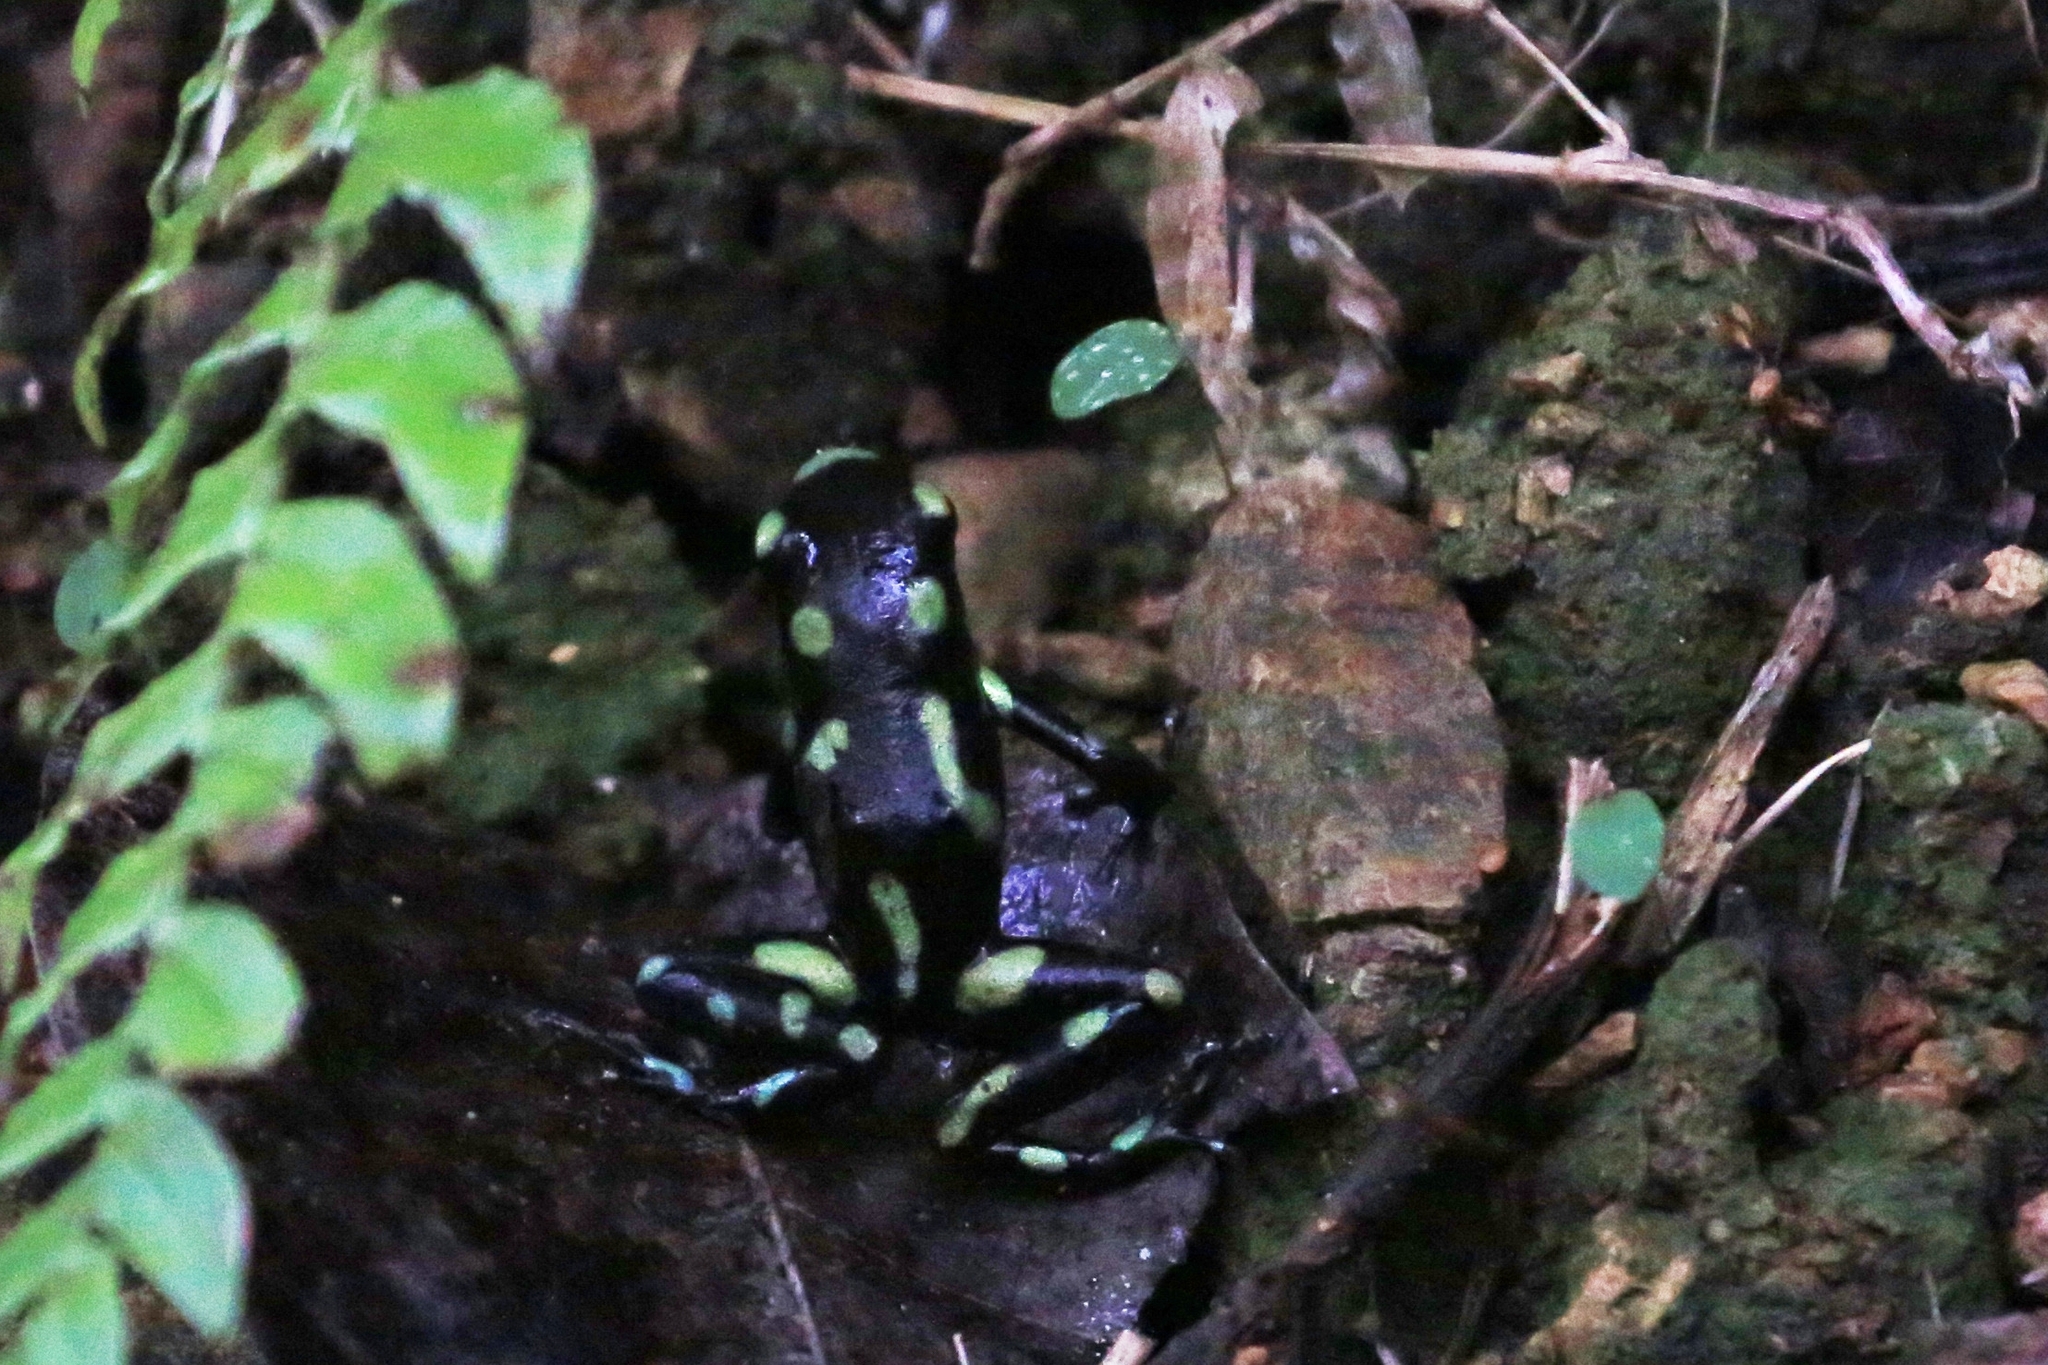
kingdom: Animalia
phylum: Chordata
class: Amphibia
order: Anura
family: Dendrobatidae
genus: Dendrobates
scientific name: Dendrobates auratus
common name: Green and black poison dart frog
